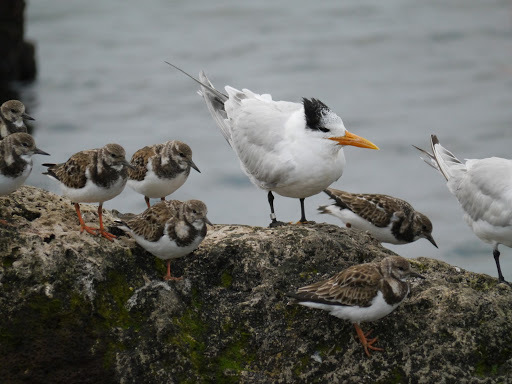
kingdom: Animalia
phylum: Chordata
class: Aves
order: Charadriiformes
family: Laridae
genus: Thalasseus
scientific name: Thalasseus maximus
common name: Royal tern
